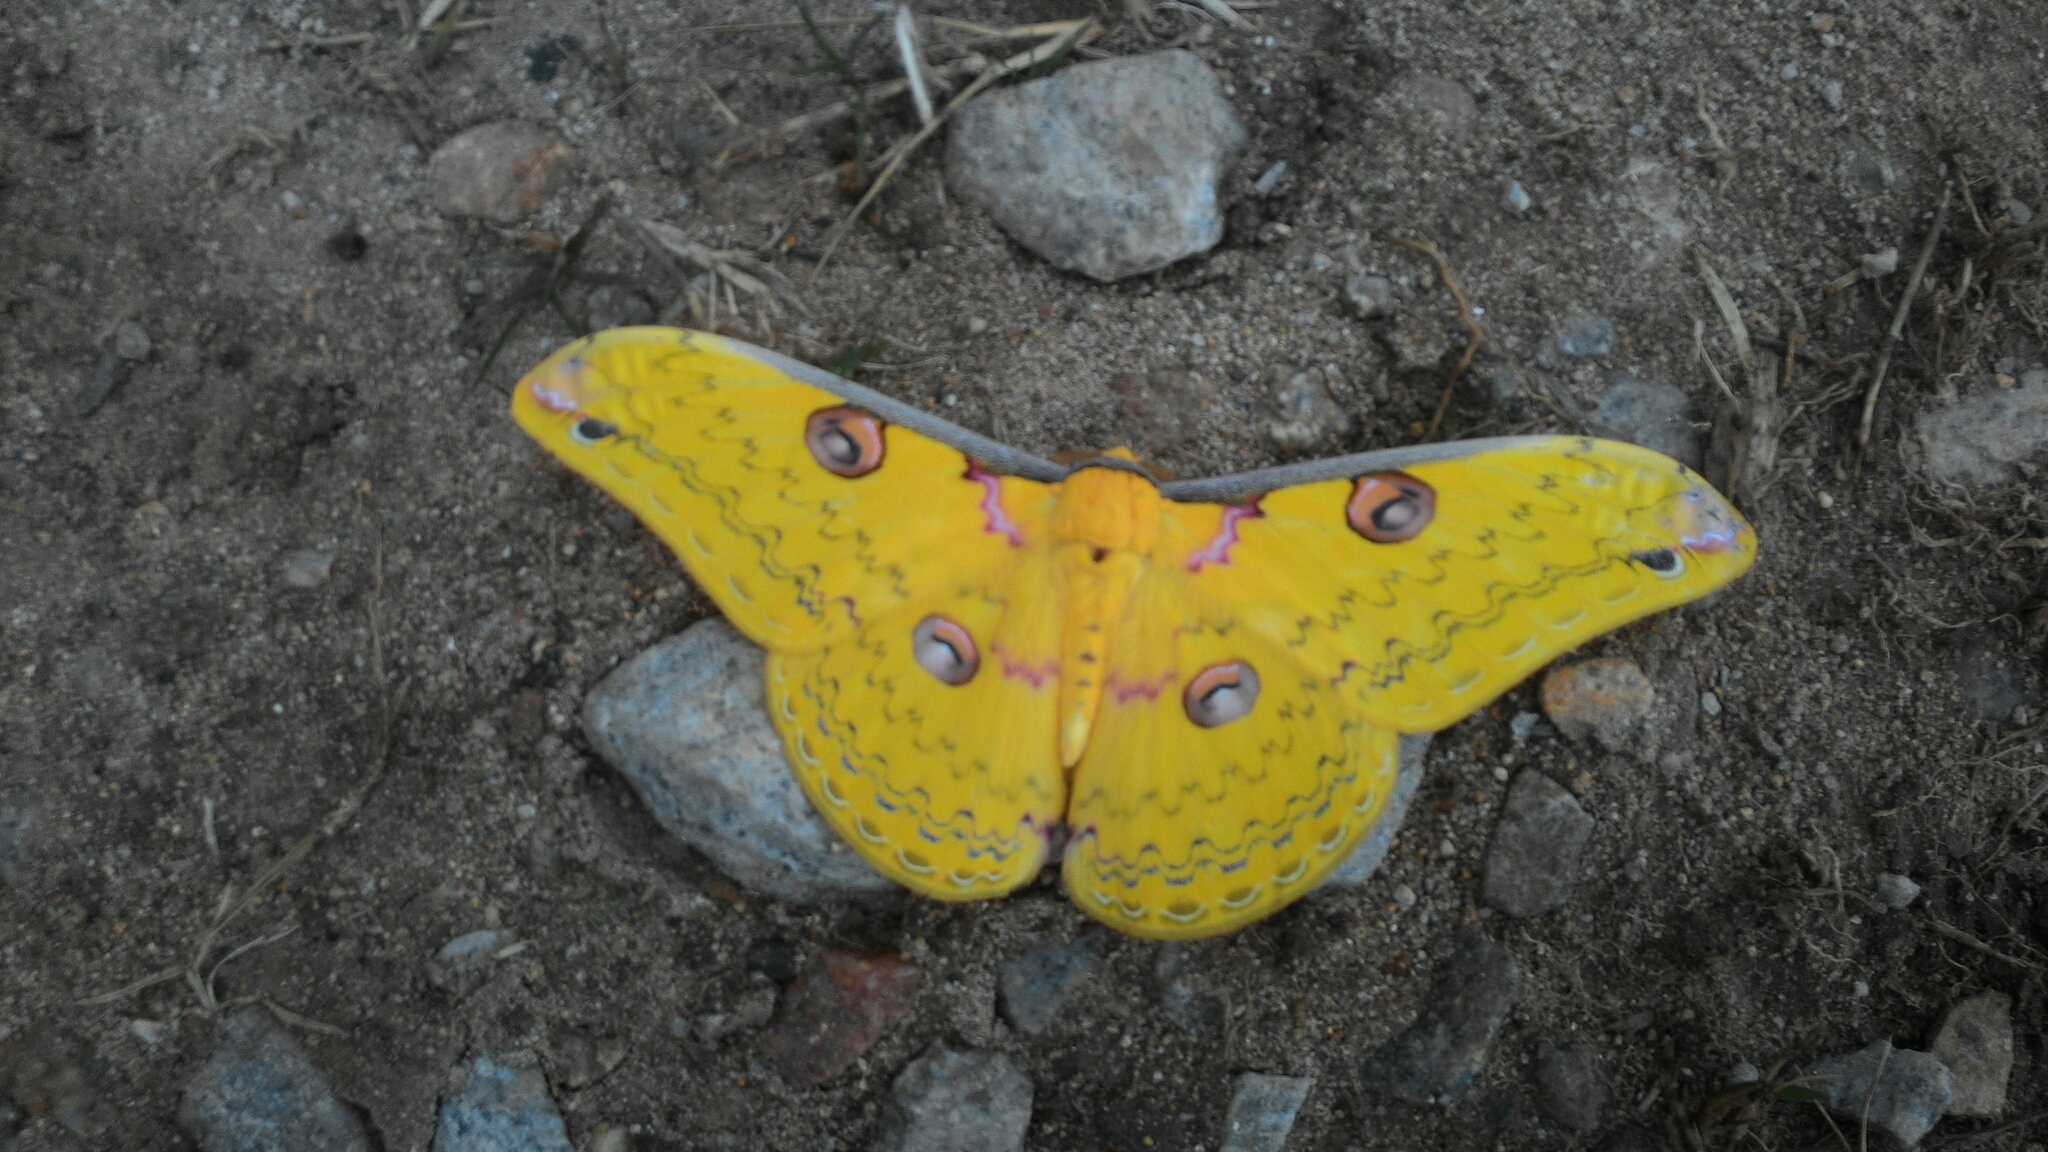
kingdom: Animalia
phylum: Arthropoda
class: Insecta
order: Lepidoptera
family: Saturniidae
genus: Loepa
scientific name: Loepa katinka
